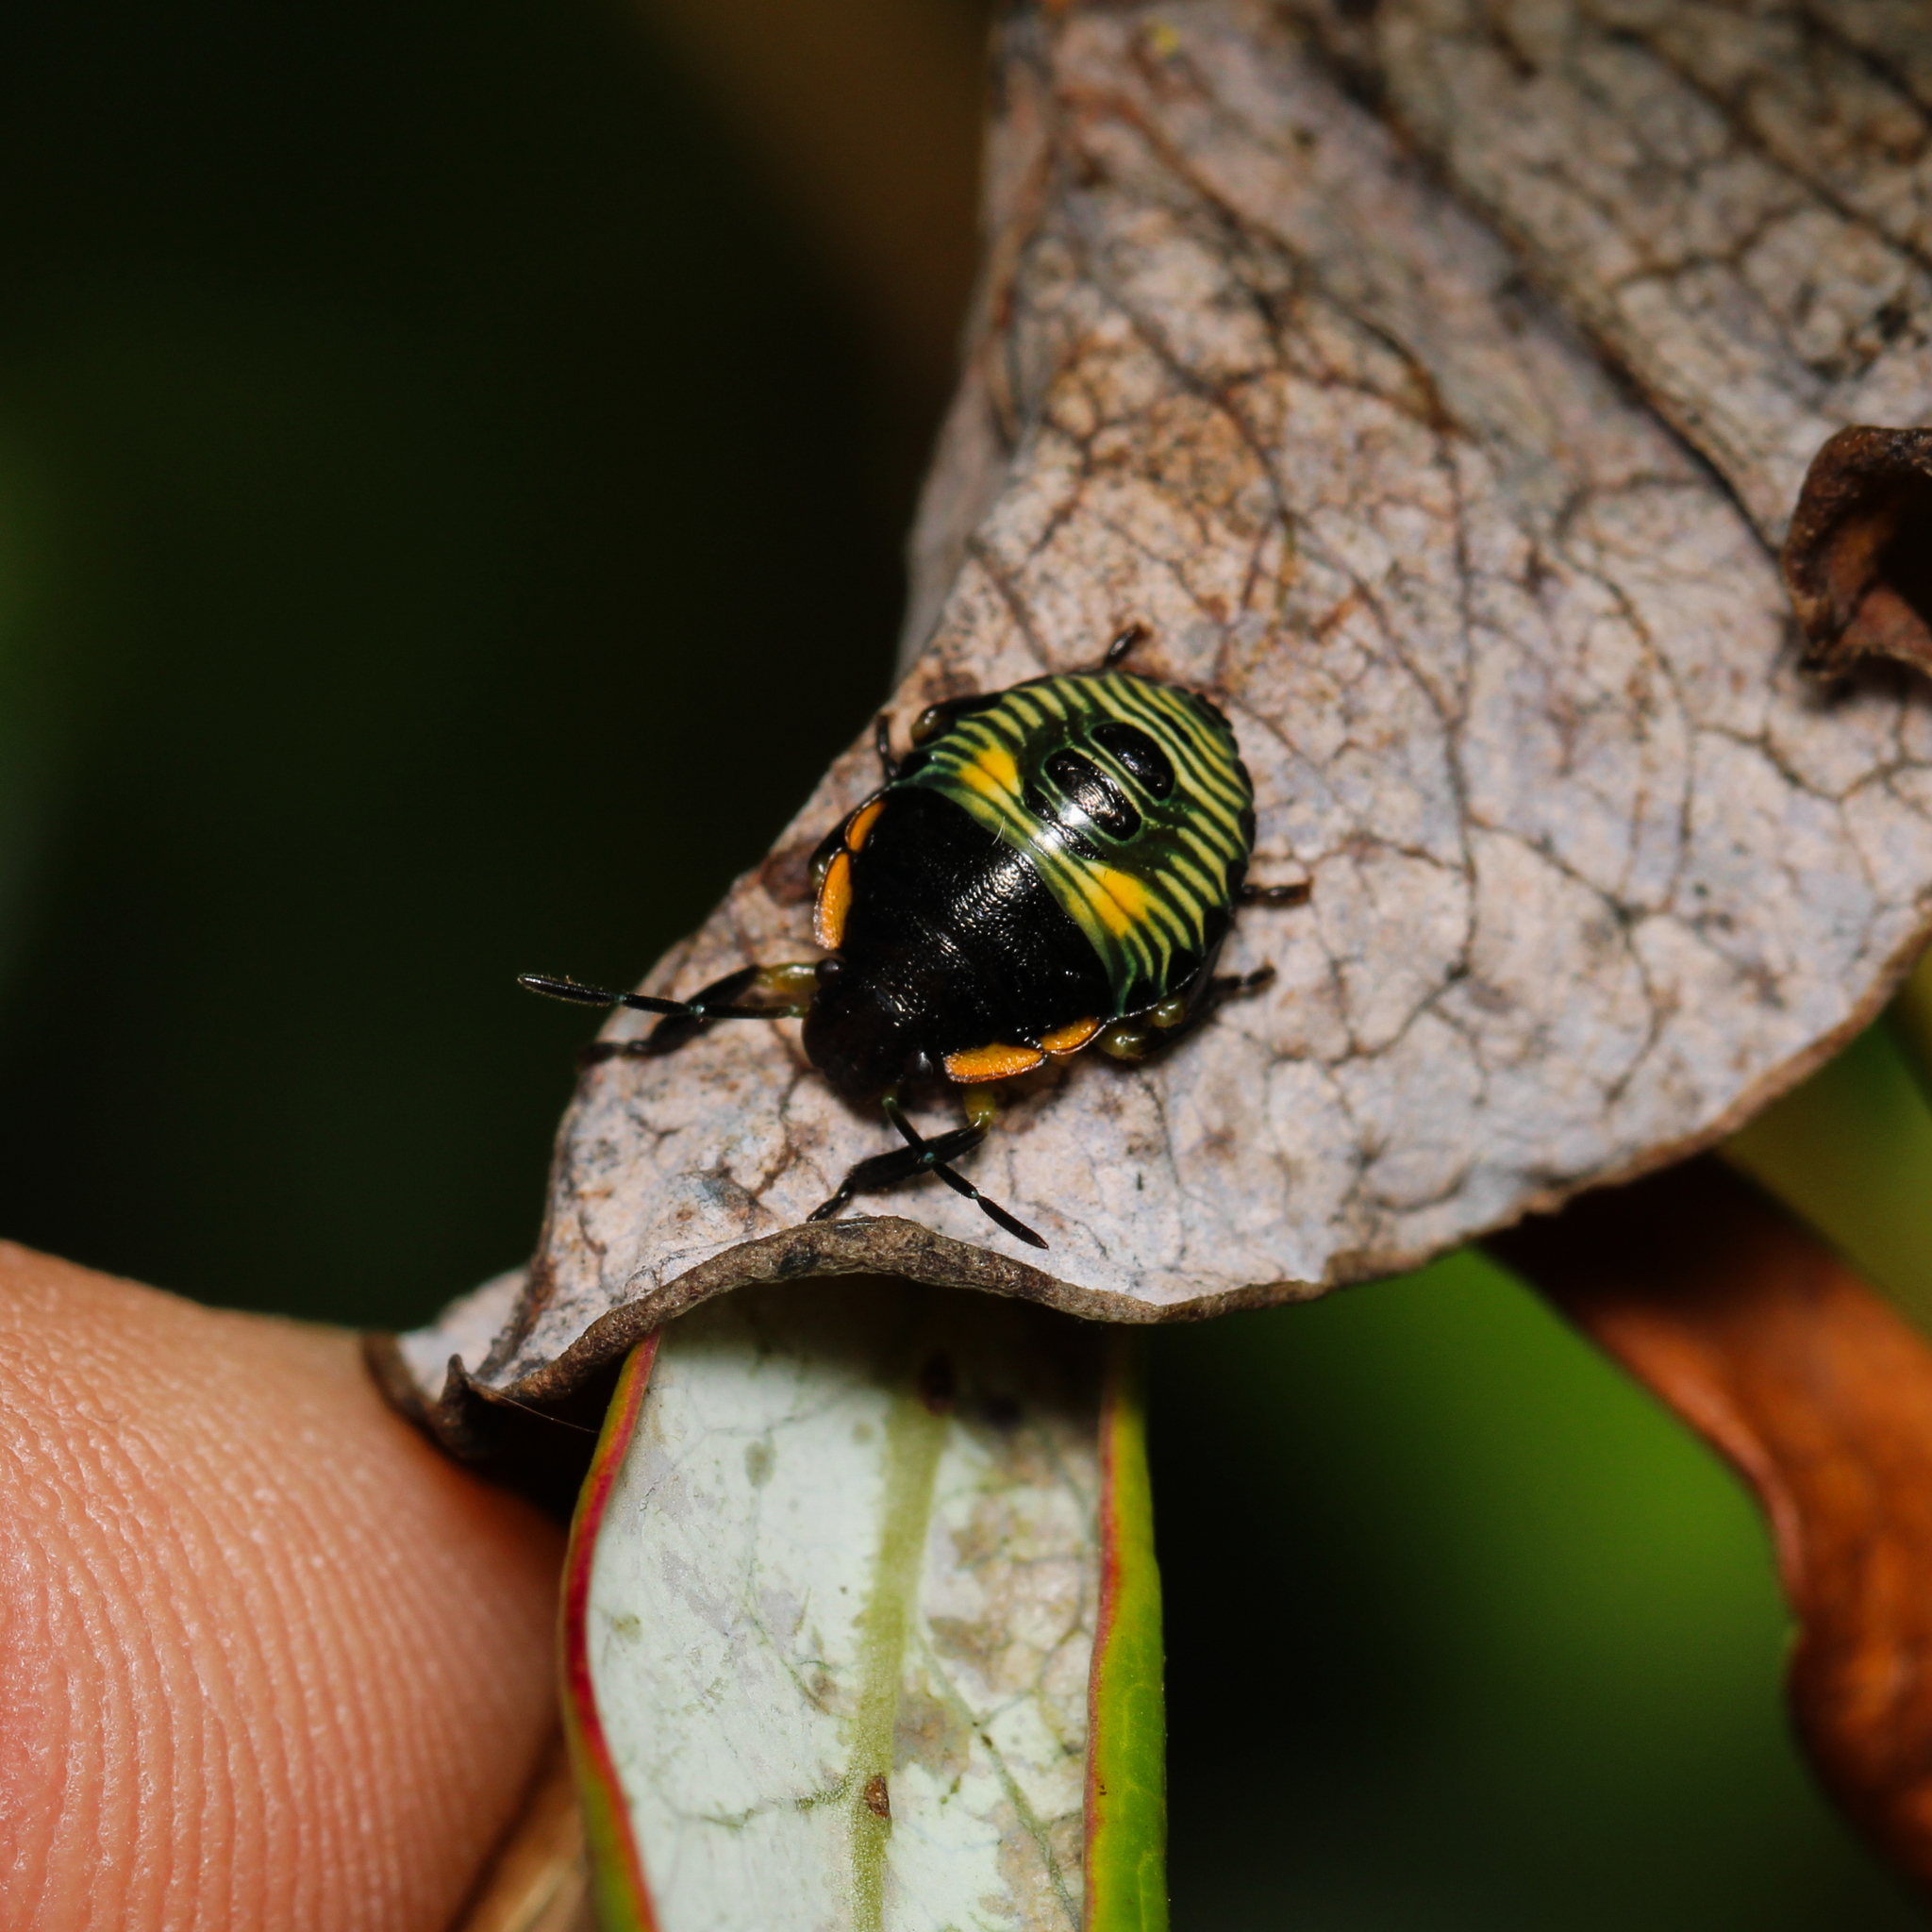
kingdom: Animalia
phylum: Arthropoda
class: Insecta
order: Hemiptera
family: Pentatomidae
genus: Chinavia
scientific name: Chinavia hilaris
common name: Green stink bug
